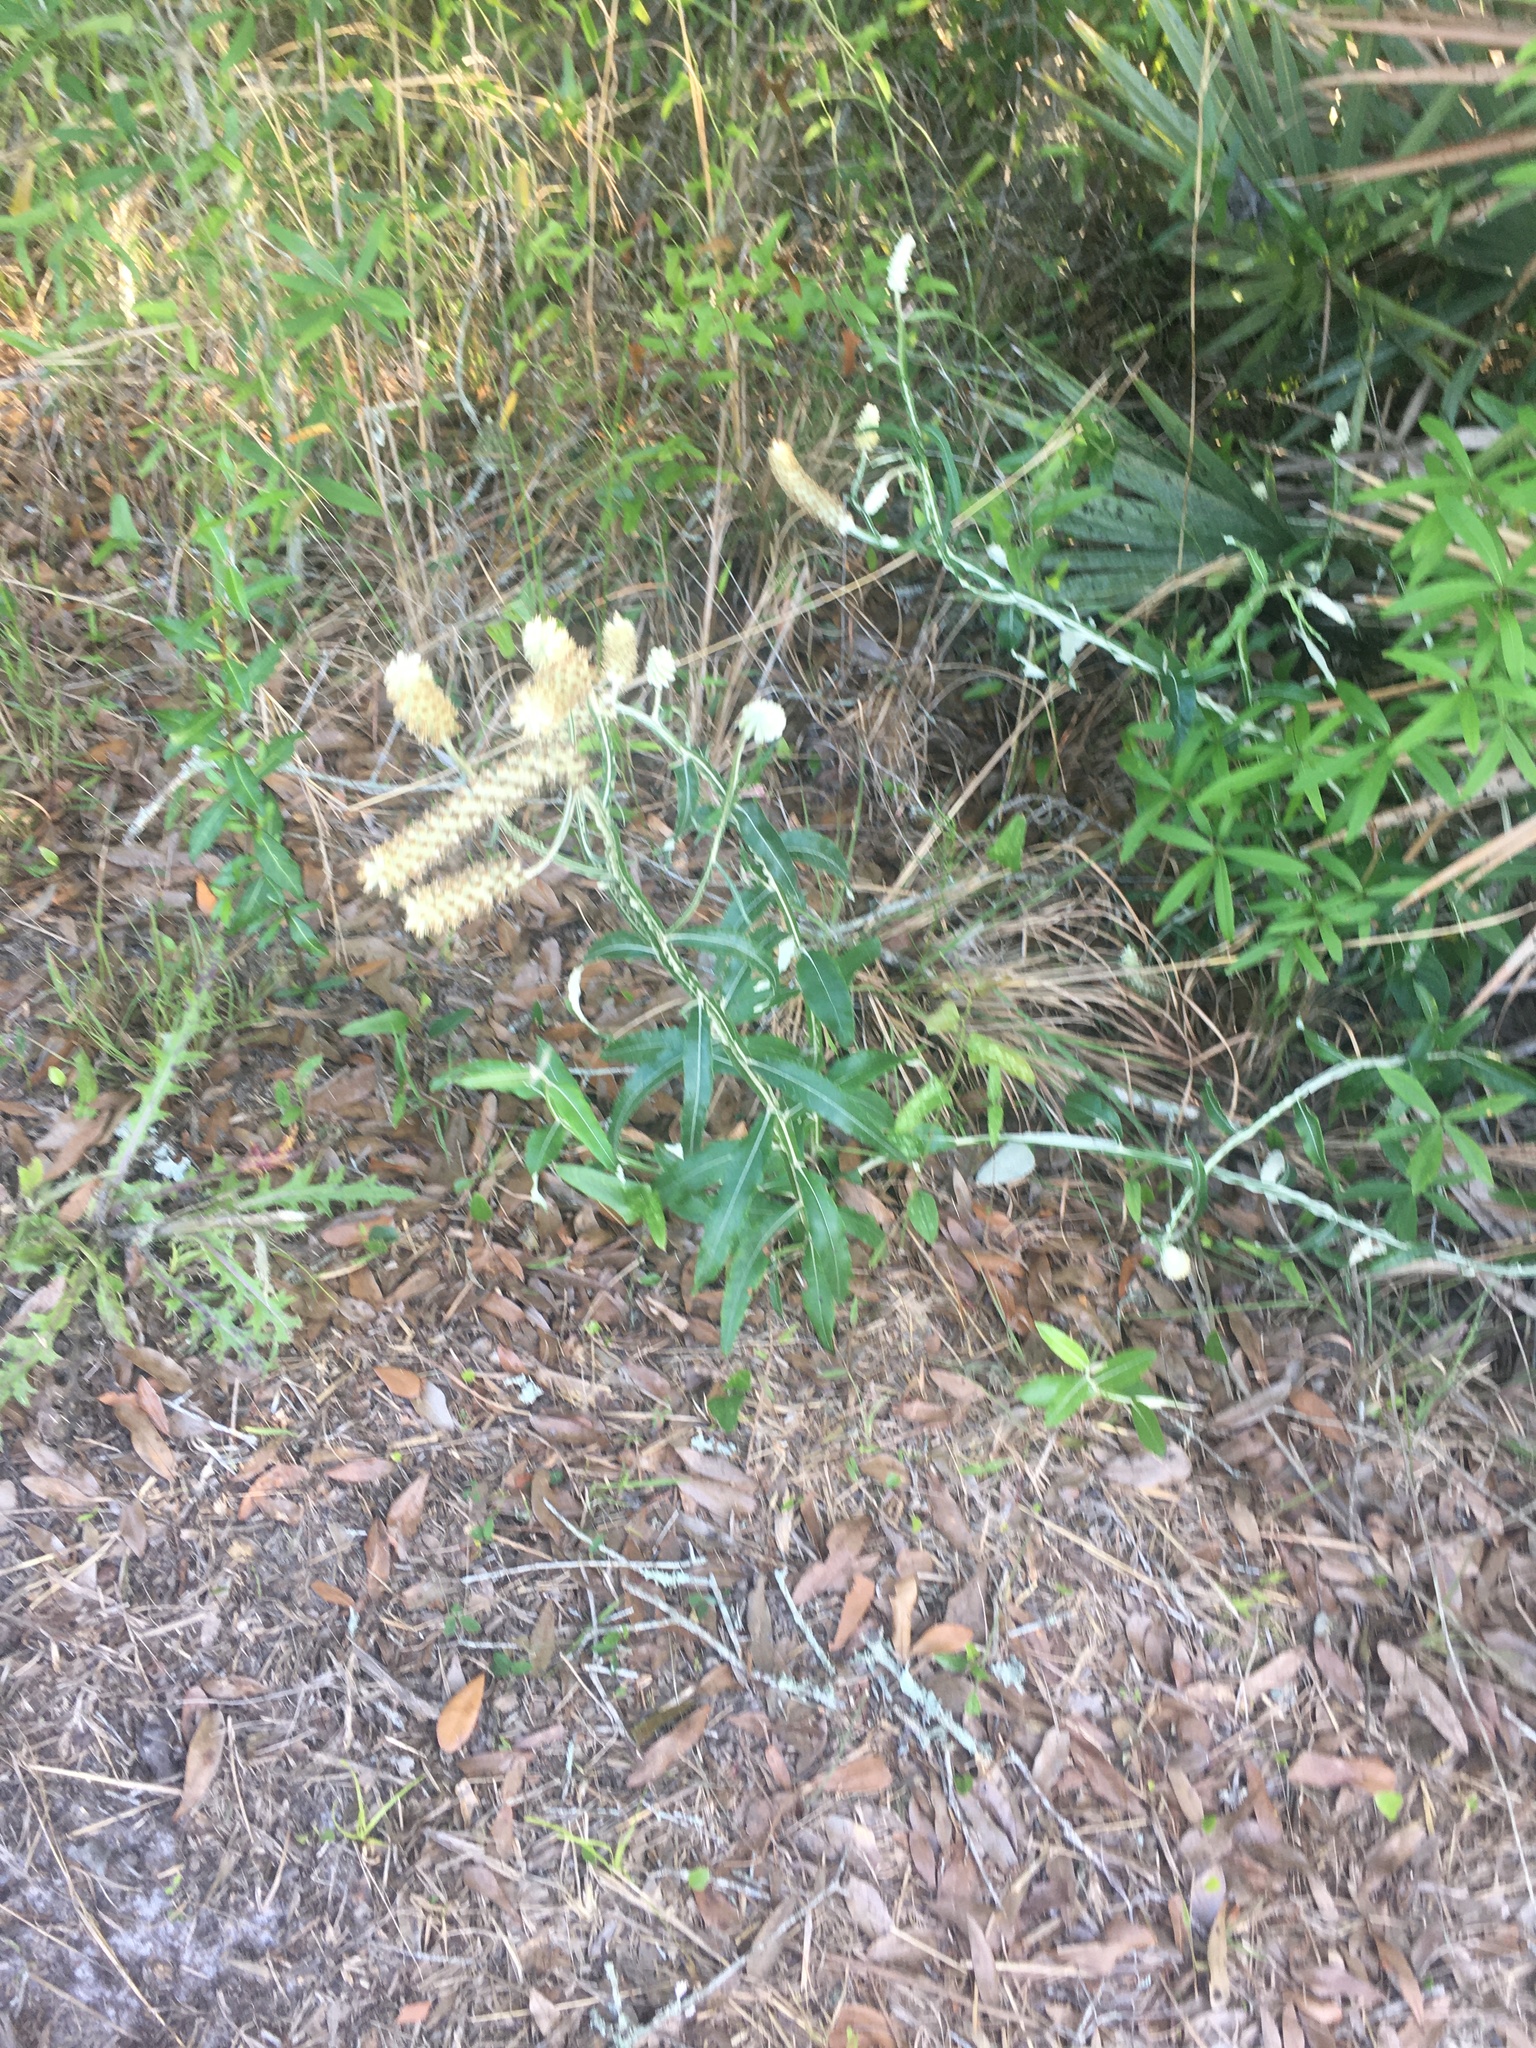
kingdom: Plantae
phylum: Tracheophyta
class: Magnoliopsida
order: Asterales
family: Asteraceae
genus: Pterocaulon
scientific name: Pterocaulon pycnostachyum
